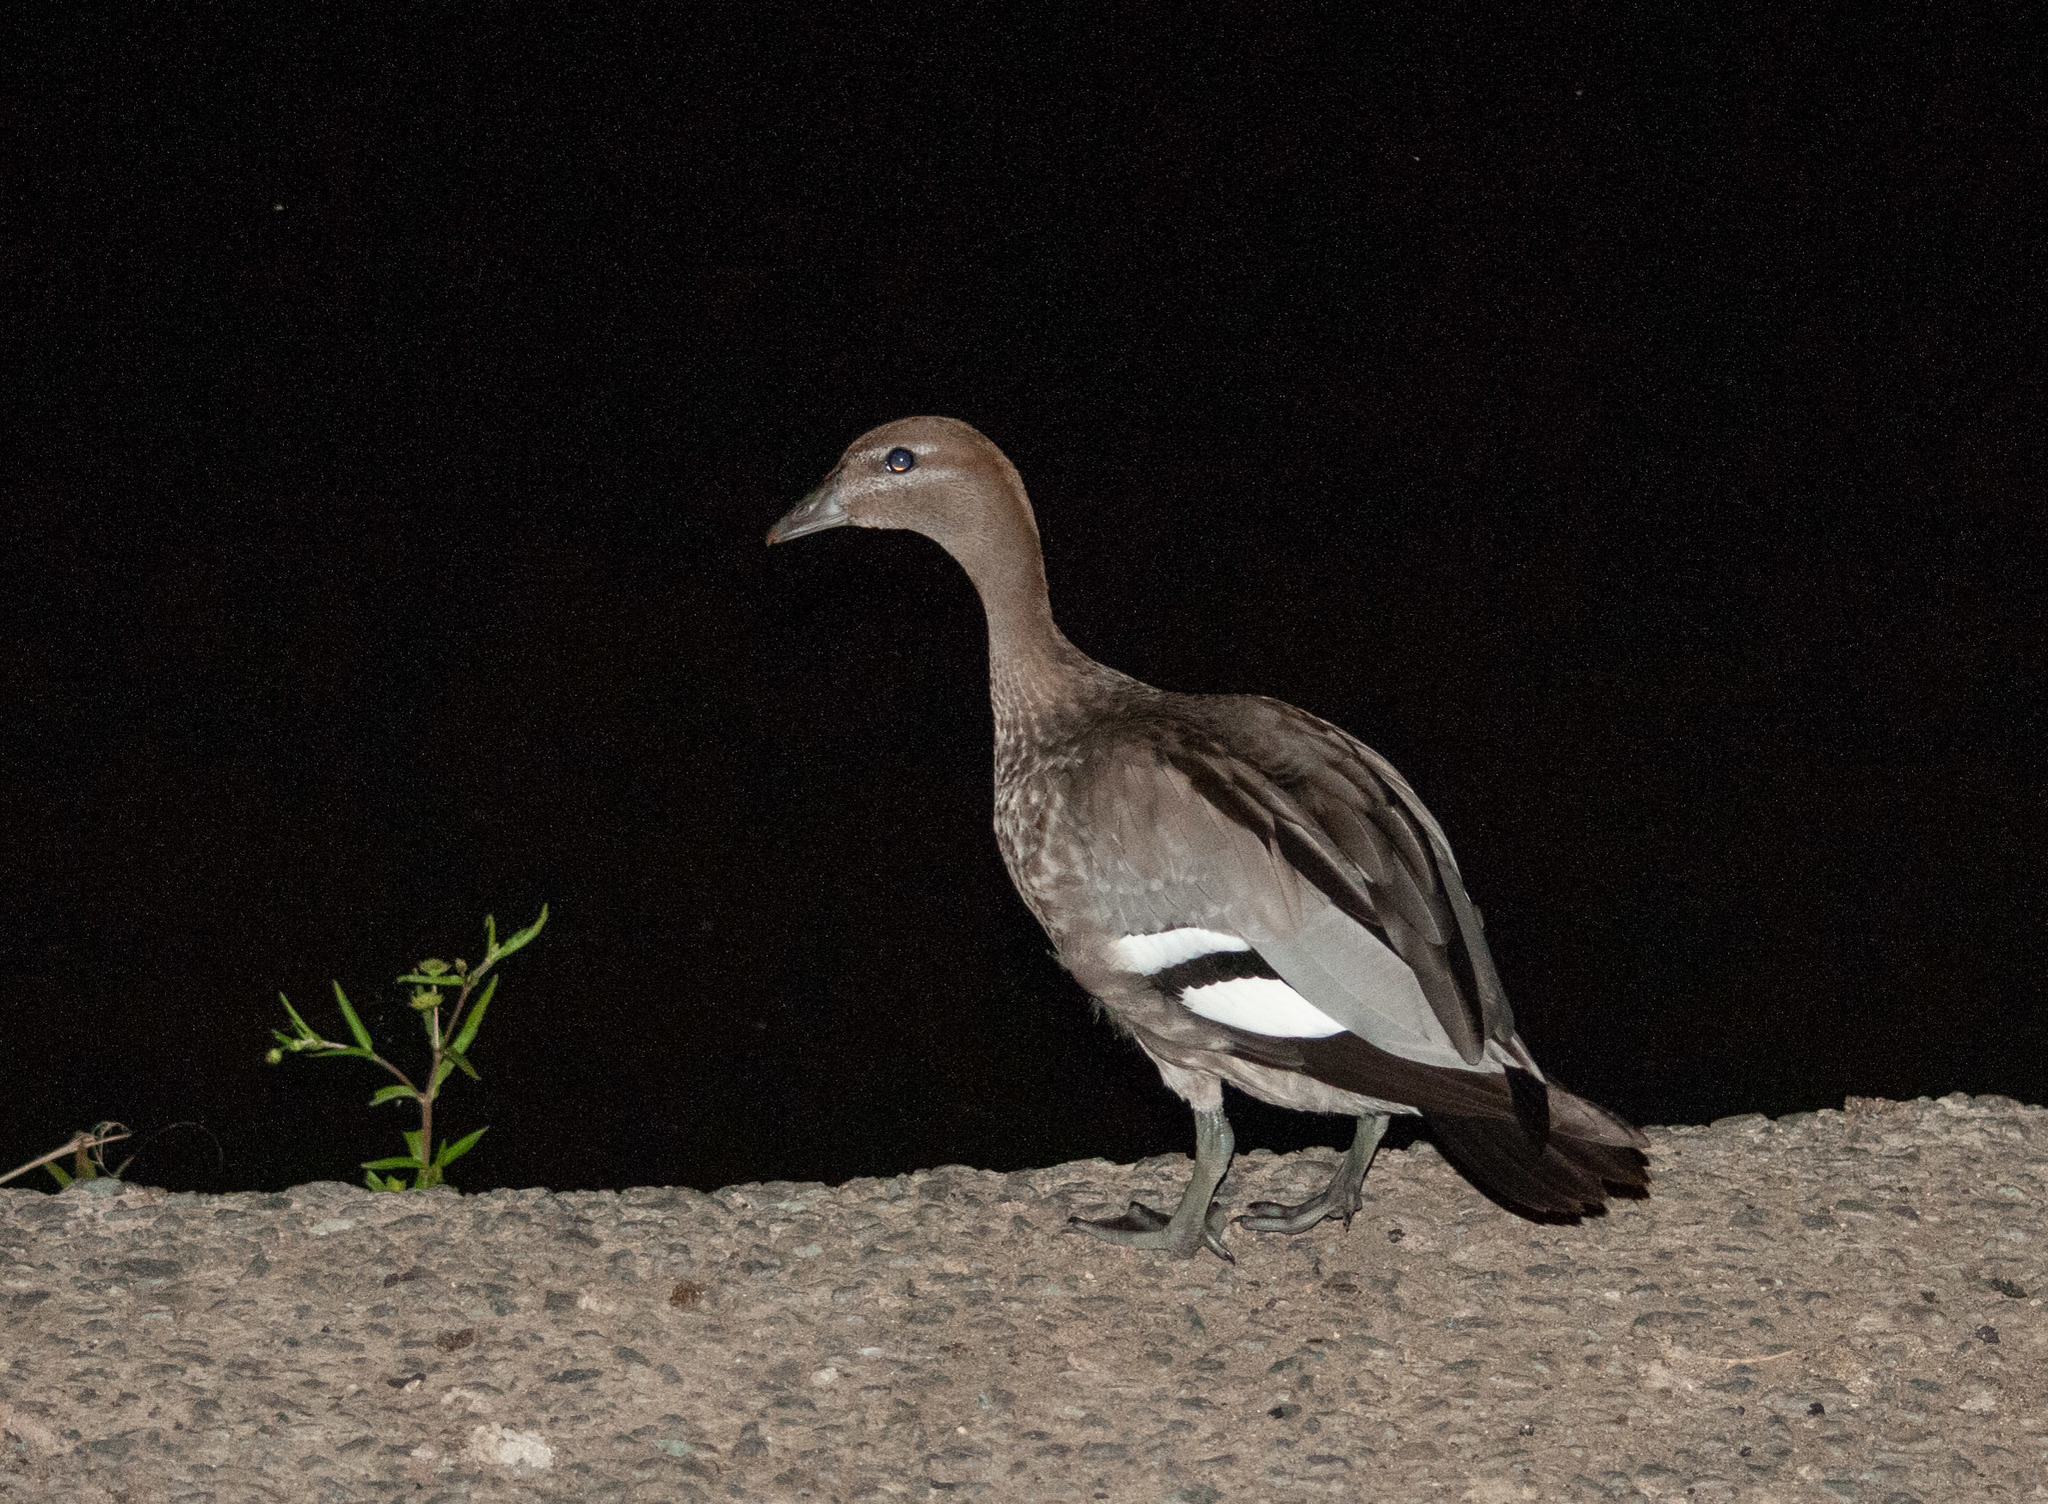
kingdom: Animalia
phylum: Chordata
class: Aves
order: Anseriformes
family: Anatidae
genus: Chenonetta
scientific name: Chenonetta jubata
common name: Maned duck
